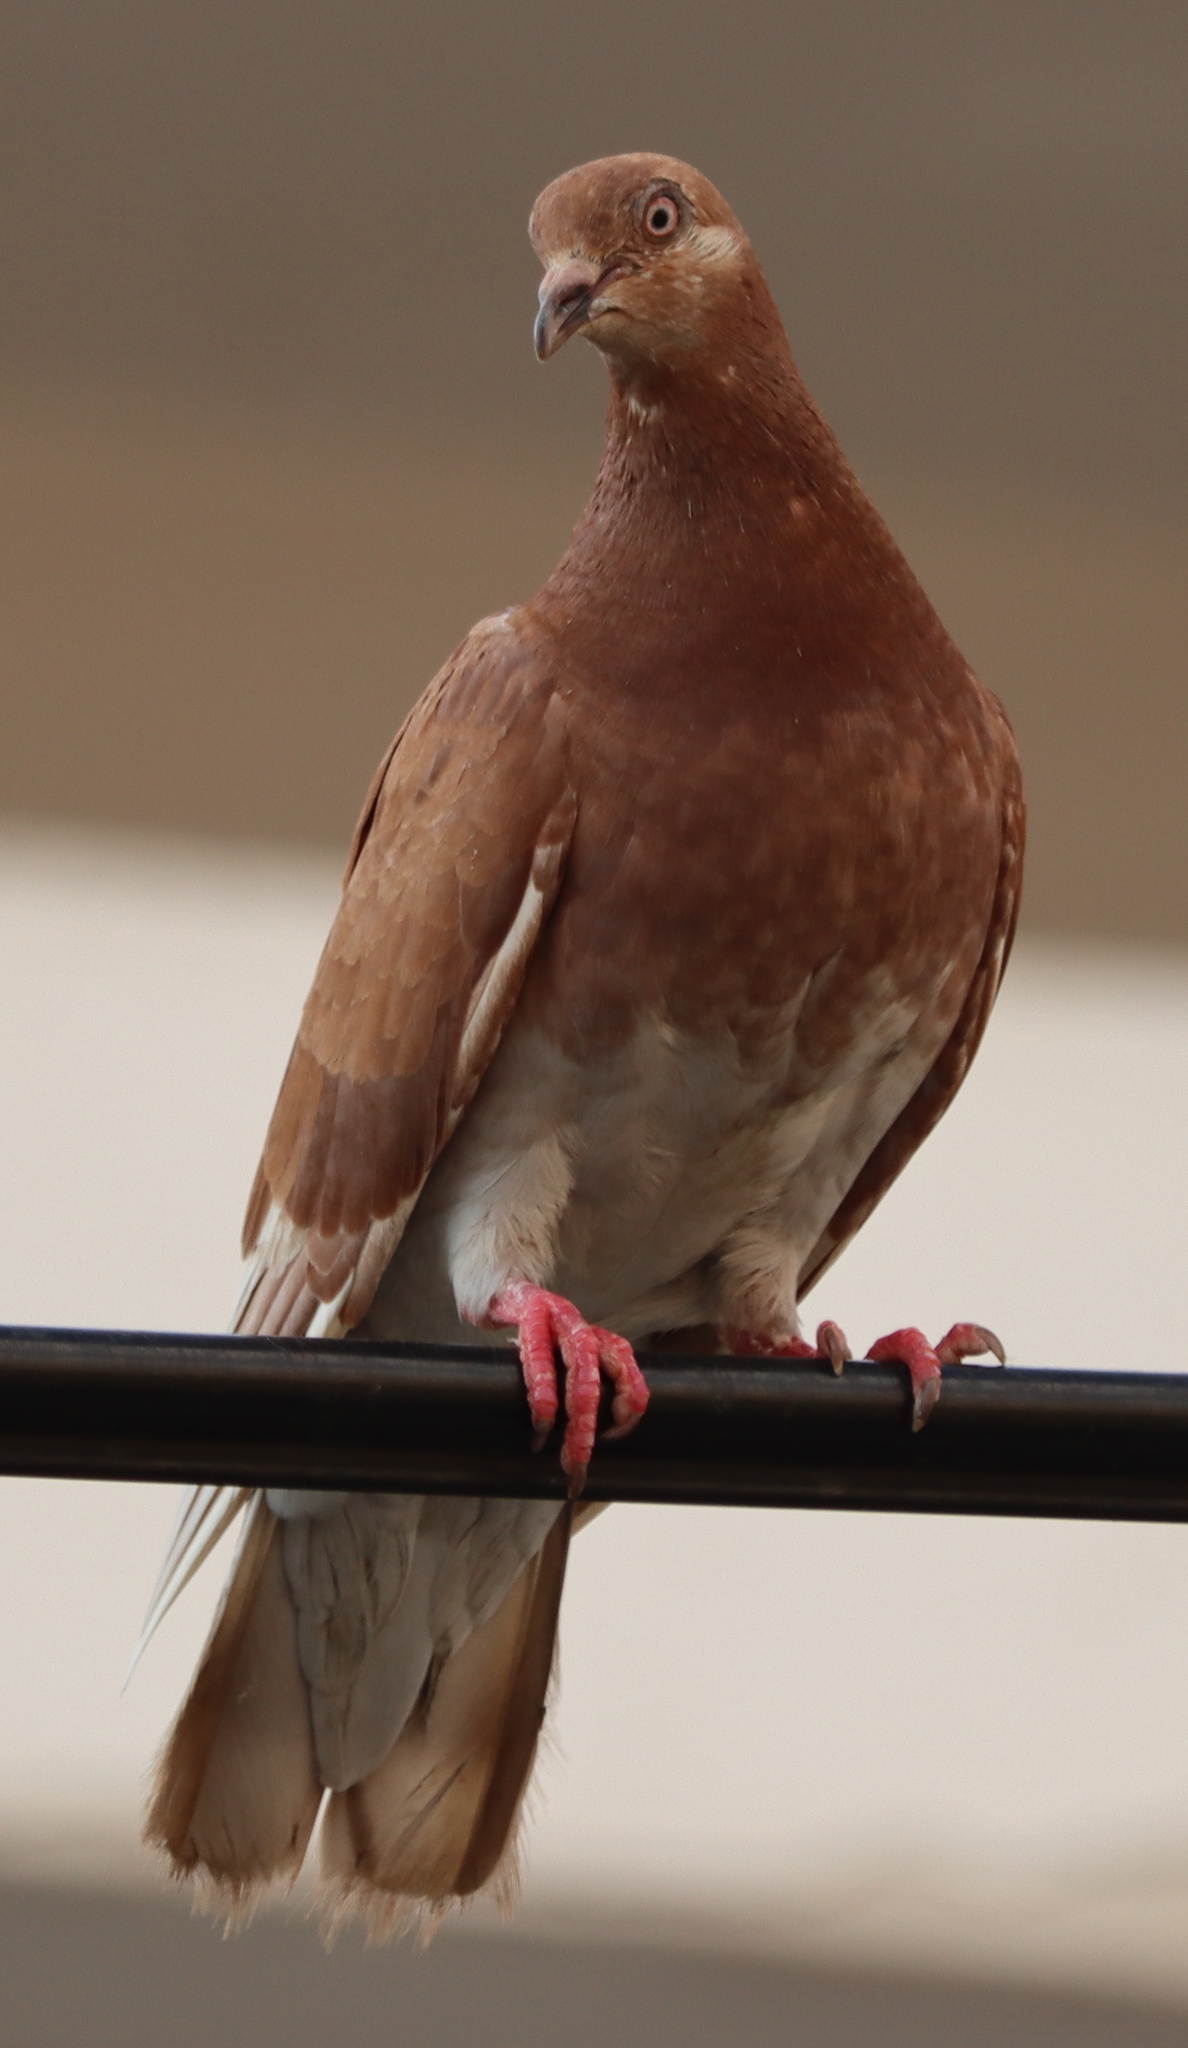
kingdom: Animalia
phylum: Chordata
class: Aves
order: Columbiformes
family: Columbidae
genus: Columba
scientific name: Columba livia
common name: Rock pigeon
